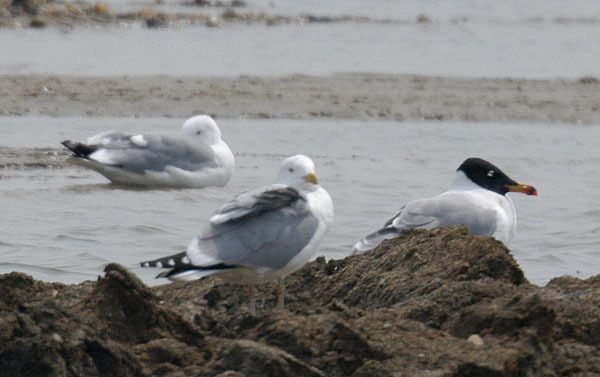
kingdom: Animalia
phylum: Chordata
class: Aves
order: Charadriiformes
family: Laridae
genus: Ichthyaetus
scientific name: Ichthyaetus ichthyaetus
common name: Pallas's gull
